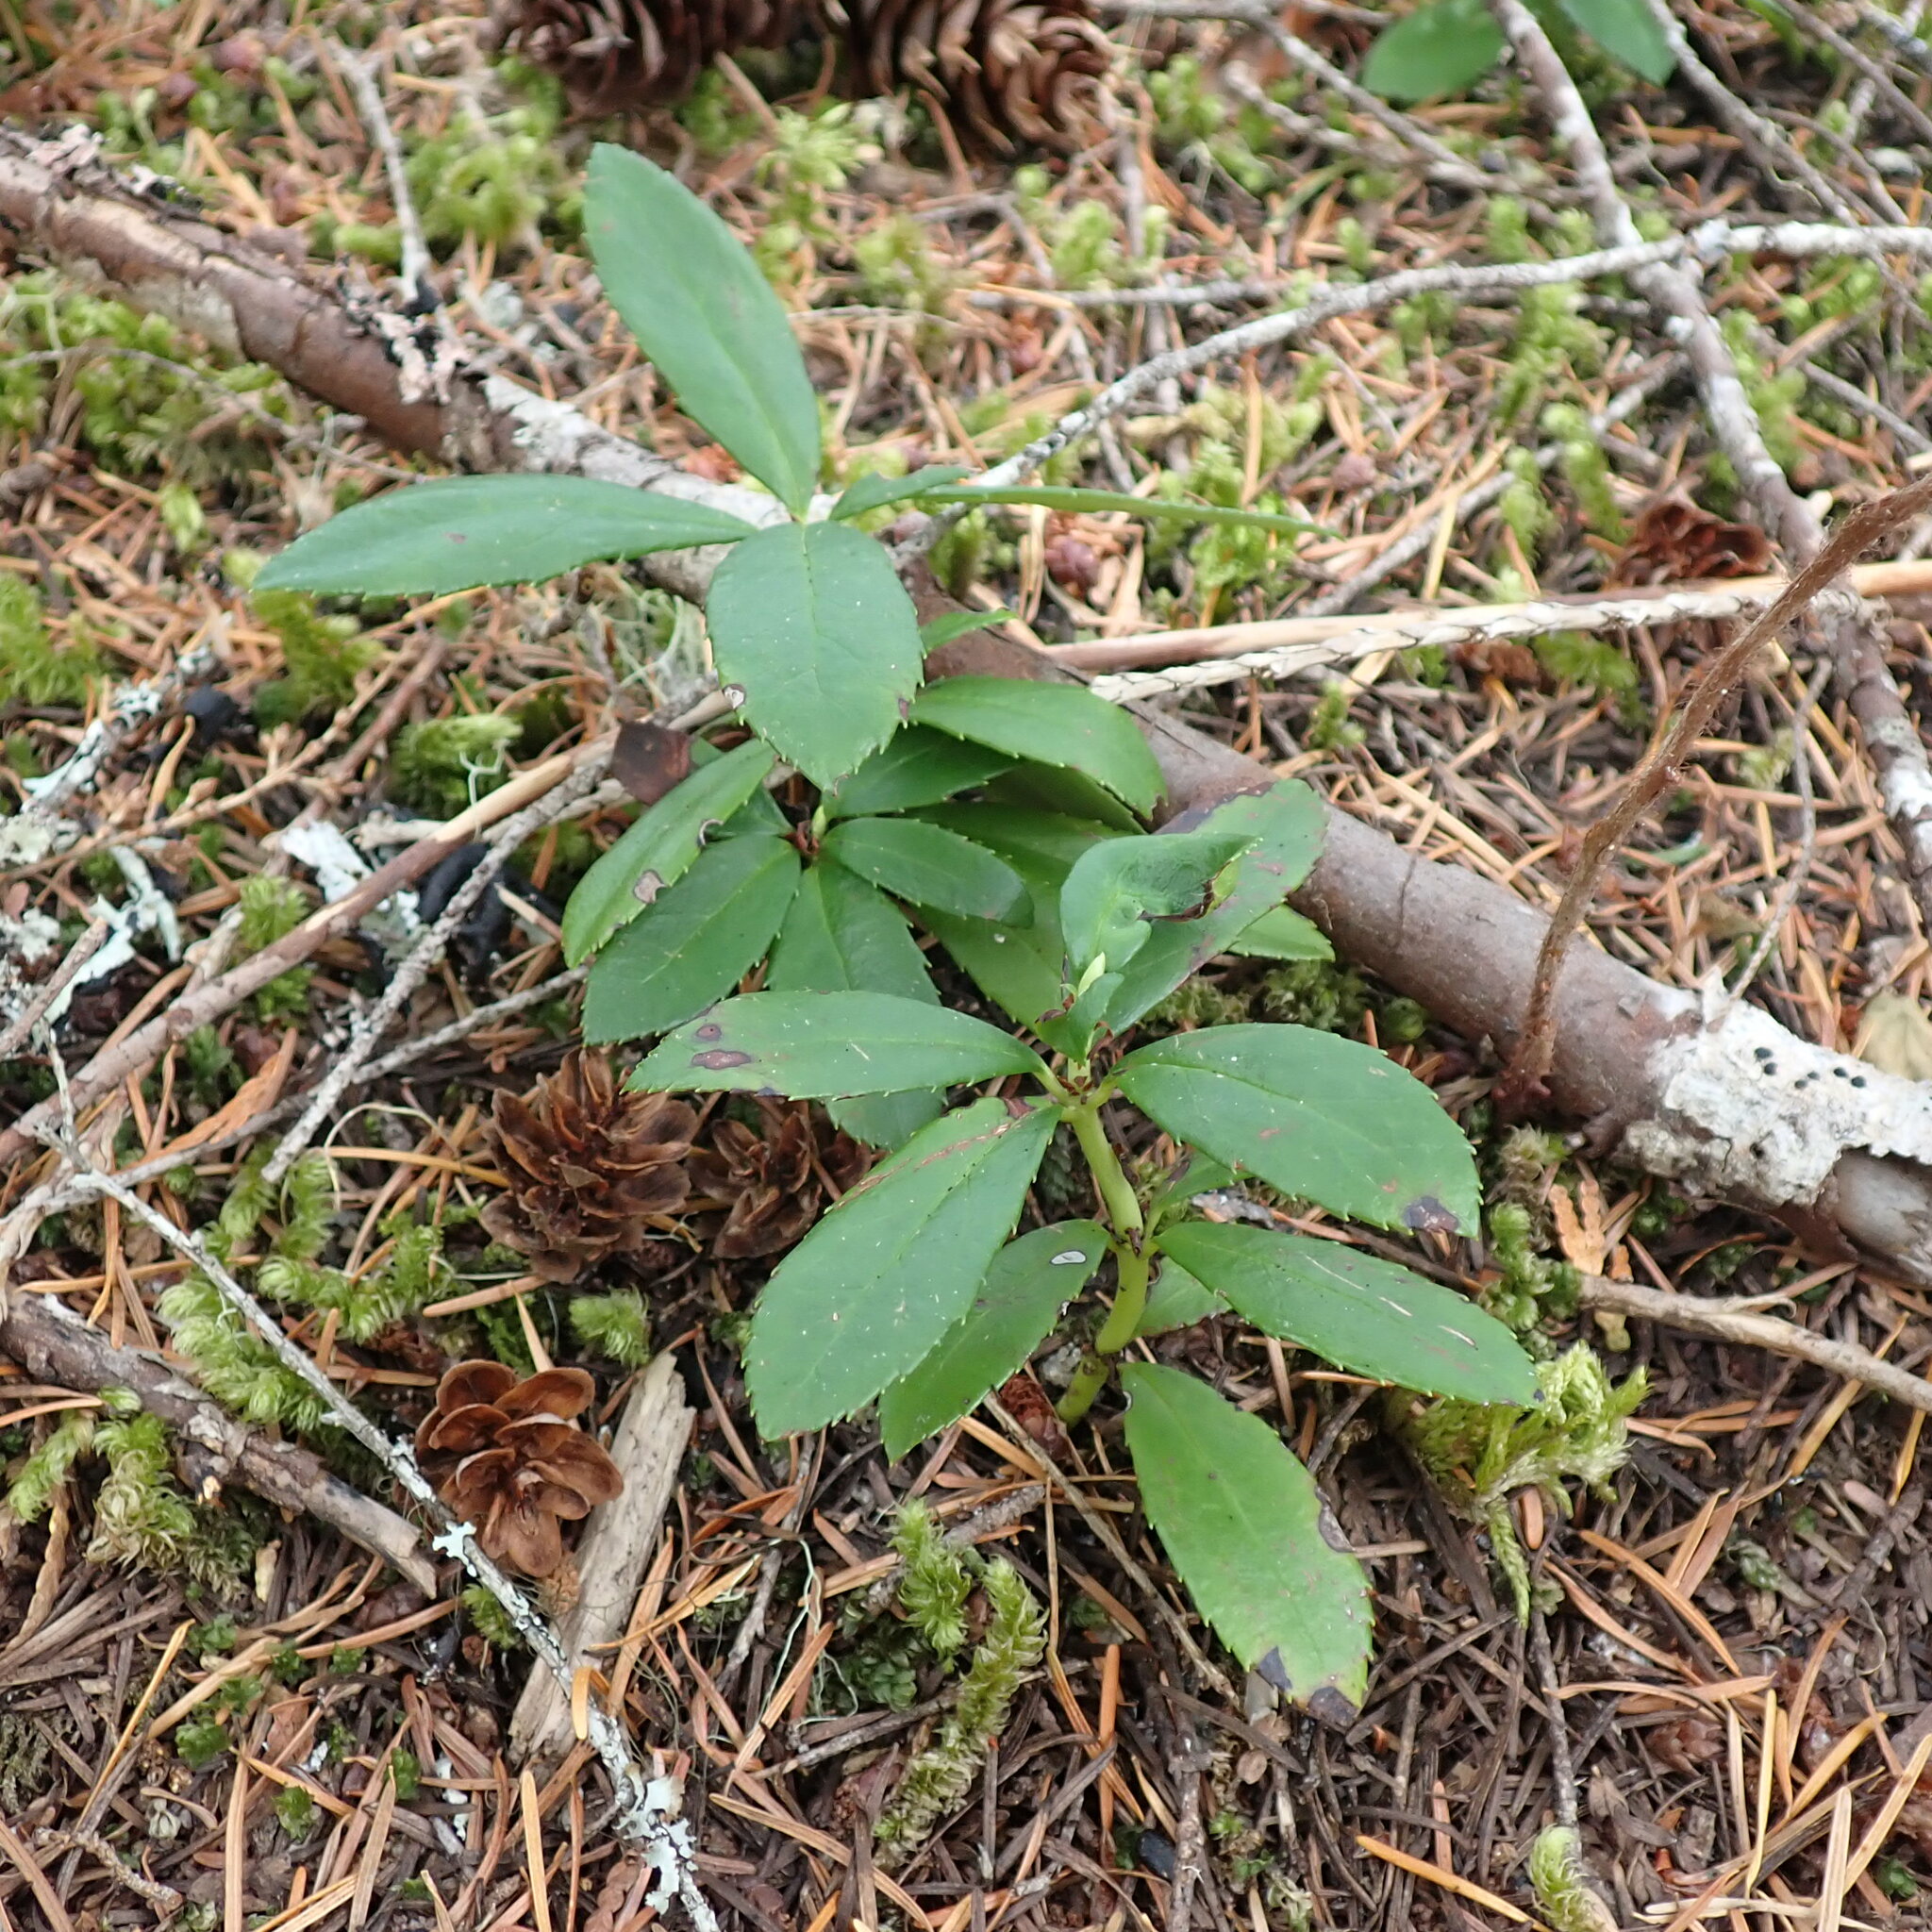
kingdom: Plantae
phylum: Tracheophyta
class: Magnoliopsida
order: Ericales
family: Ericaceae
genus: Chimaphila
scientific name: Chimaphila umbellata
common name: Pipsissewa
